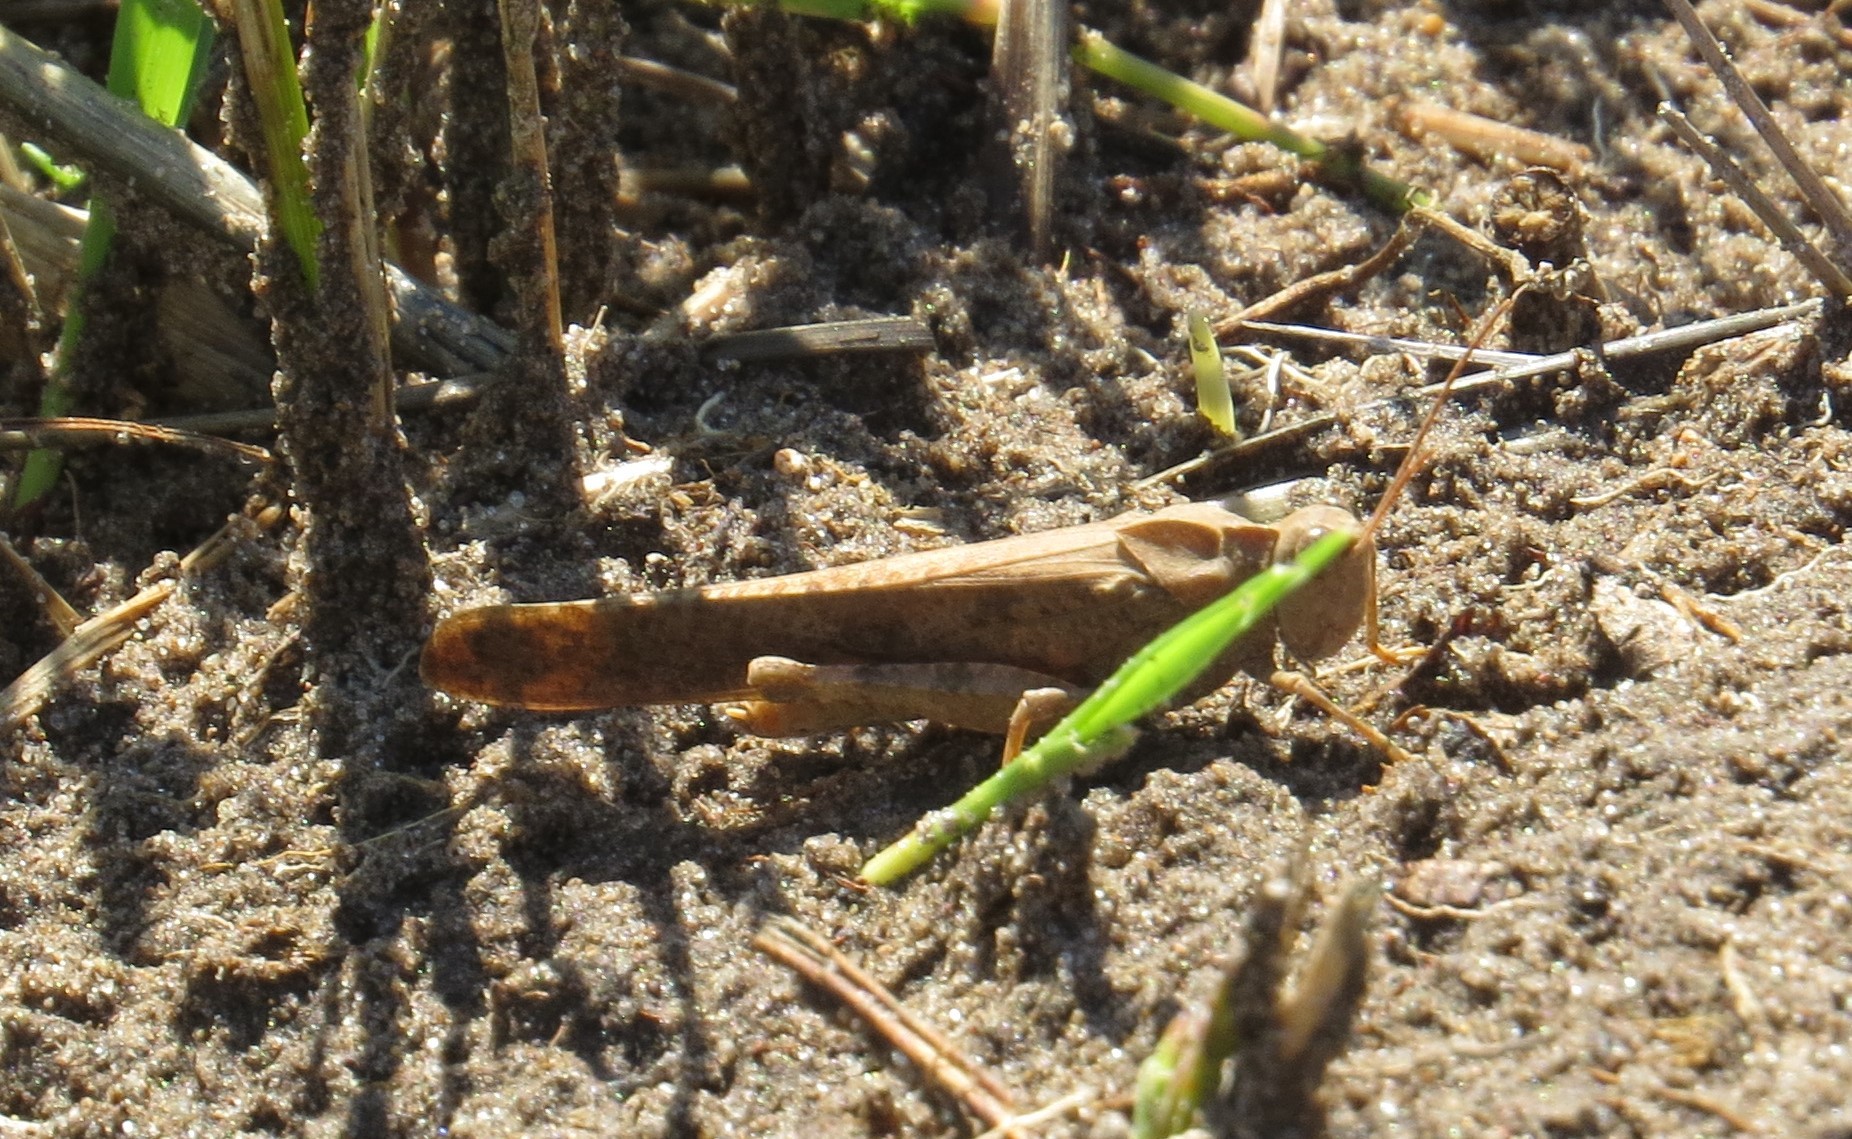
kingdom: Animalia
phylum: Arthropoda
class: Insecta
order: Orthoptera
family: Acrididae
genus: Dissosteira
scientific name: Dissosteira carolina
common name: Carolina grasshopper
